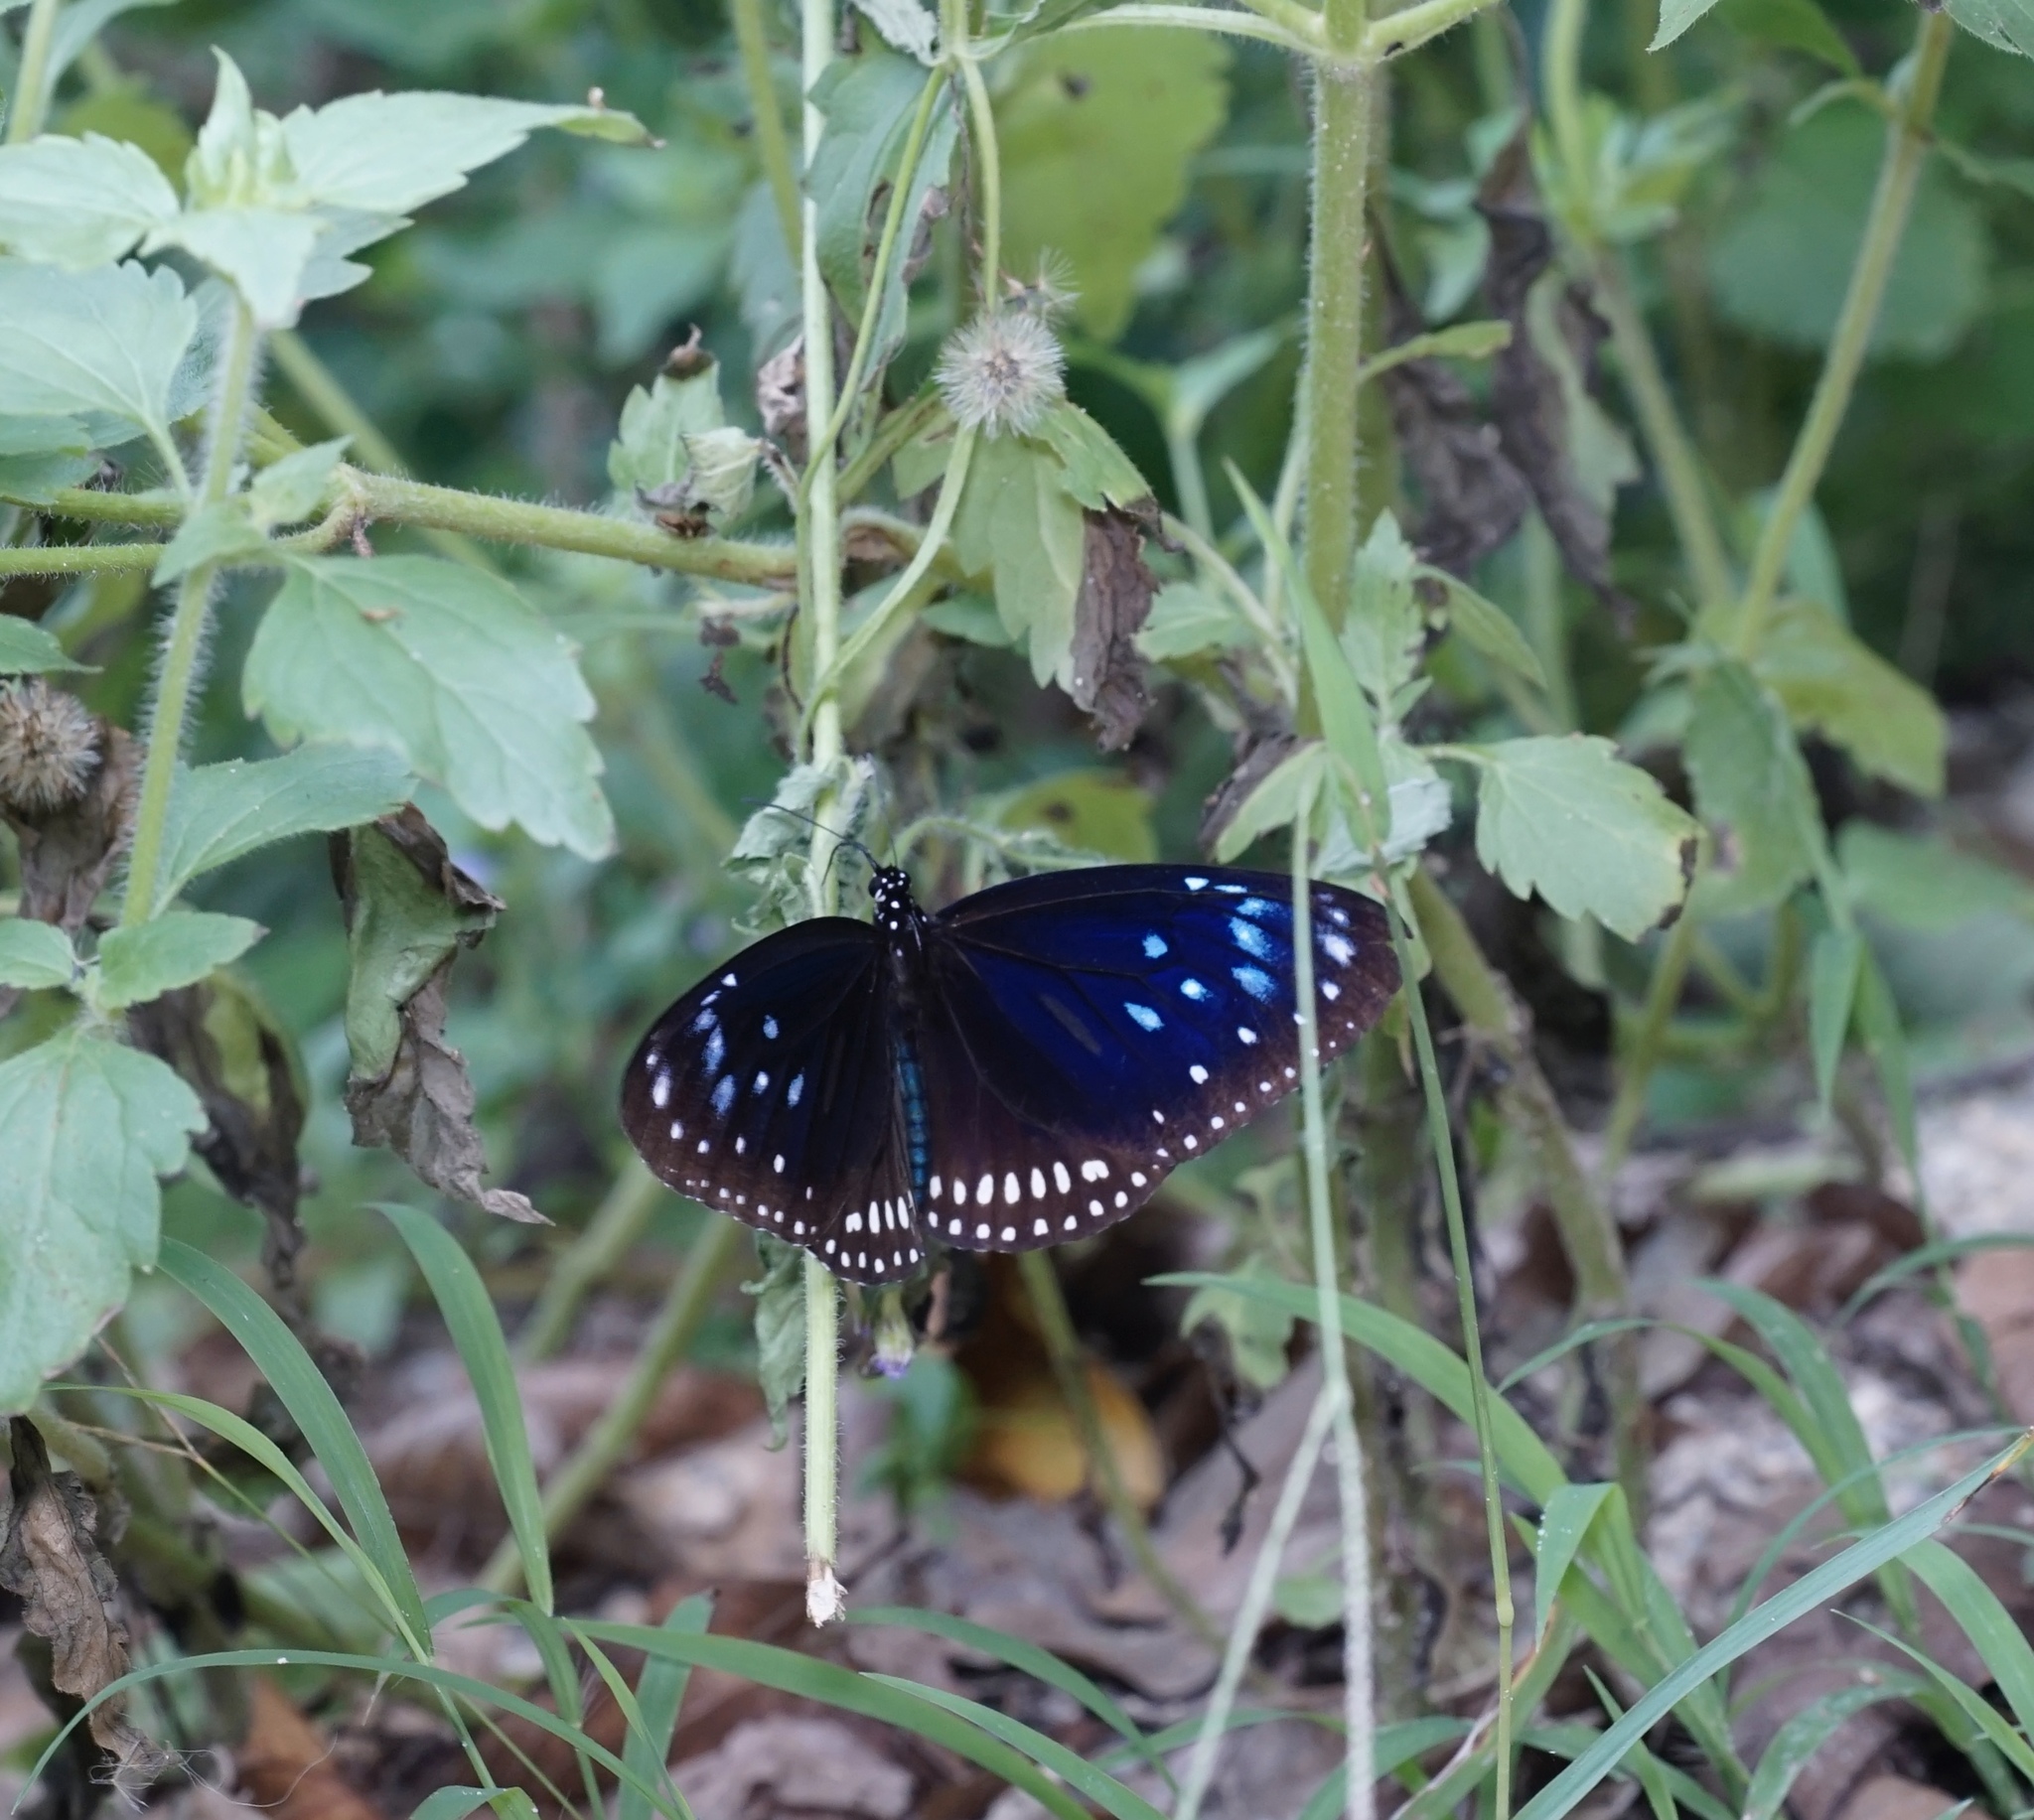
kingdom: Animalia
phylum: Arthropoda
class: Insecta
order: Lepidoptera
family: Nymphalidae
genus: Euploea
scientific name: Euploea midamus
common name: Blue-spotted crow butterfly
